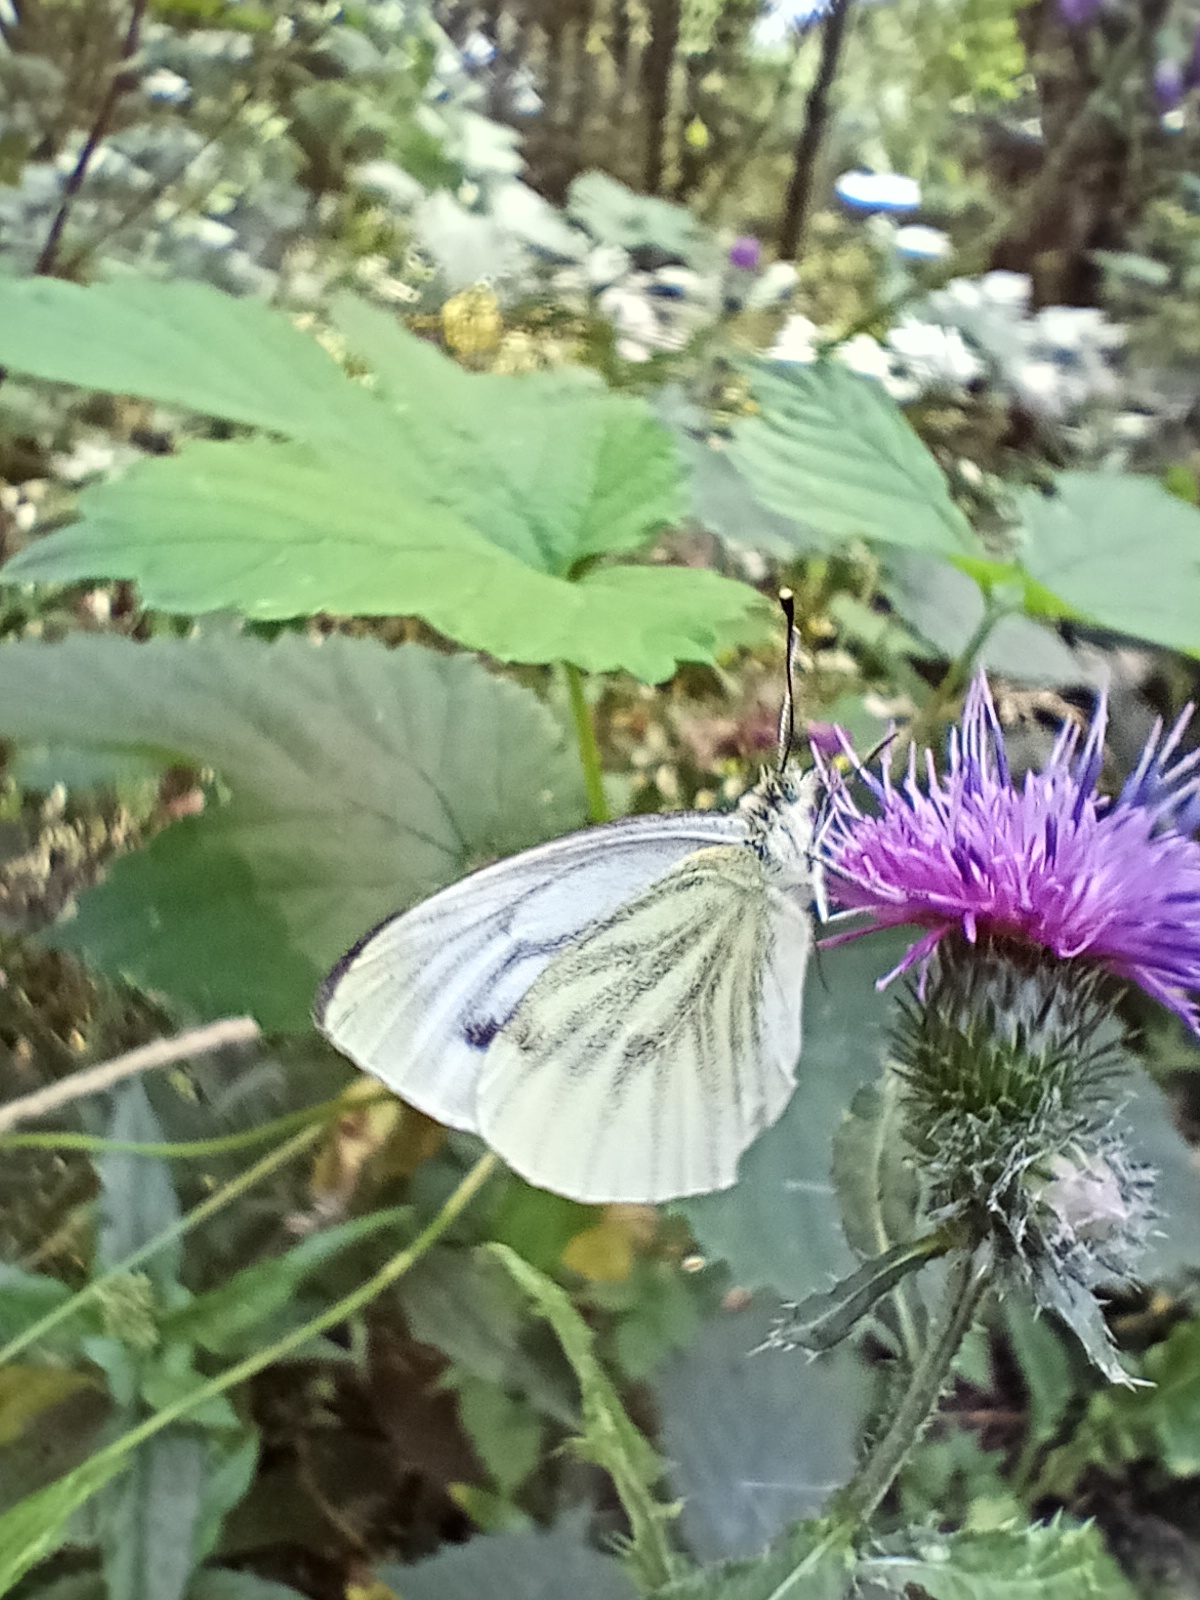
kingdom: Animalia
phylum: Arthropoda
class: Insecta
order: Lepidoptera
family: Pieridae
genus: Pieris
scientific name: Pieris napi
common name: Green-veined white
